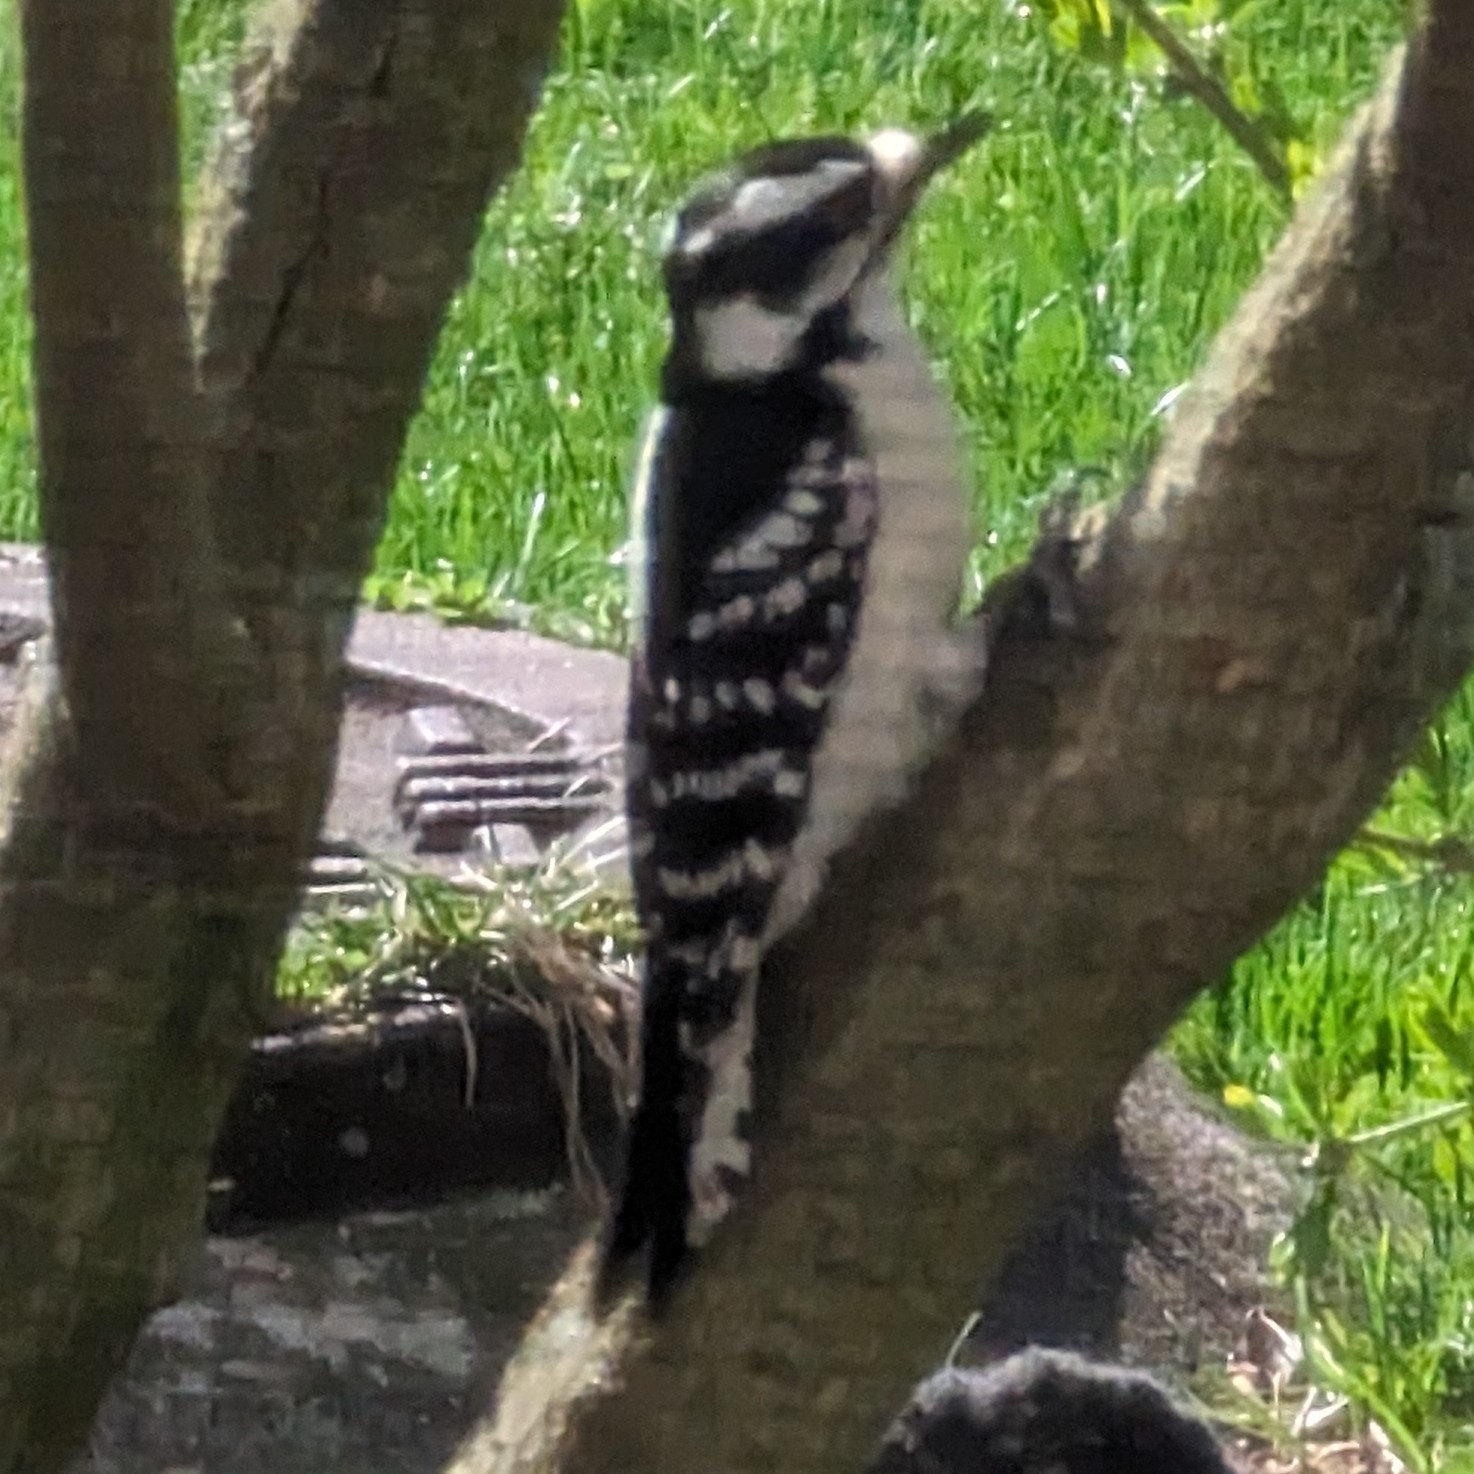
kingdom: Animalia
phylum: Chordata
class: Aves
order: Piciformes
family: Picidae
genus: Dryobates
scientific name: Dryobates pubescens
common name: Downy woodpecker
